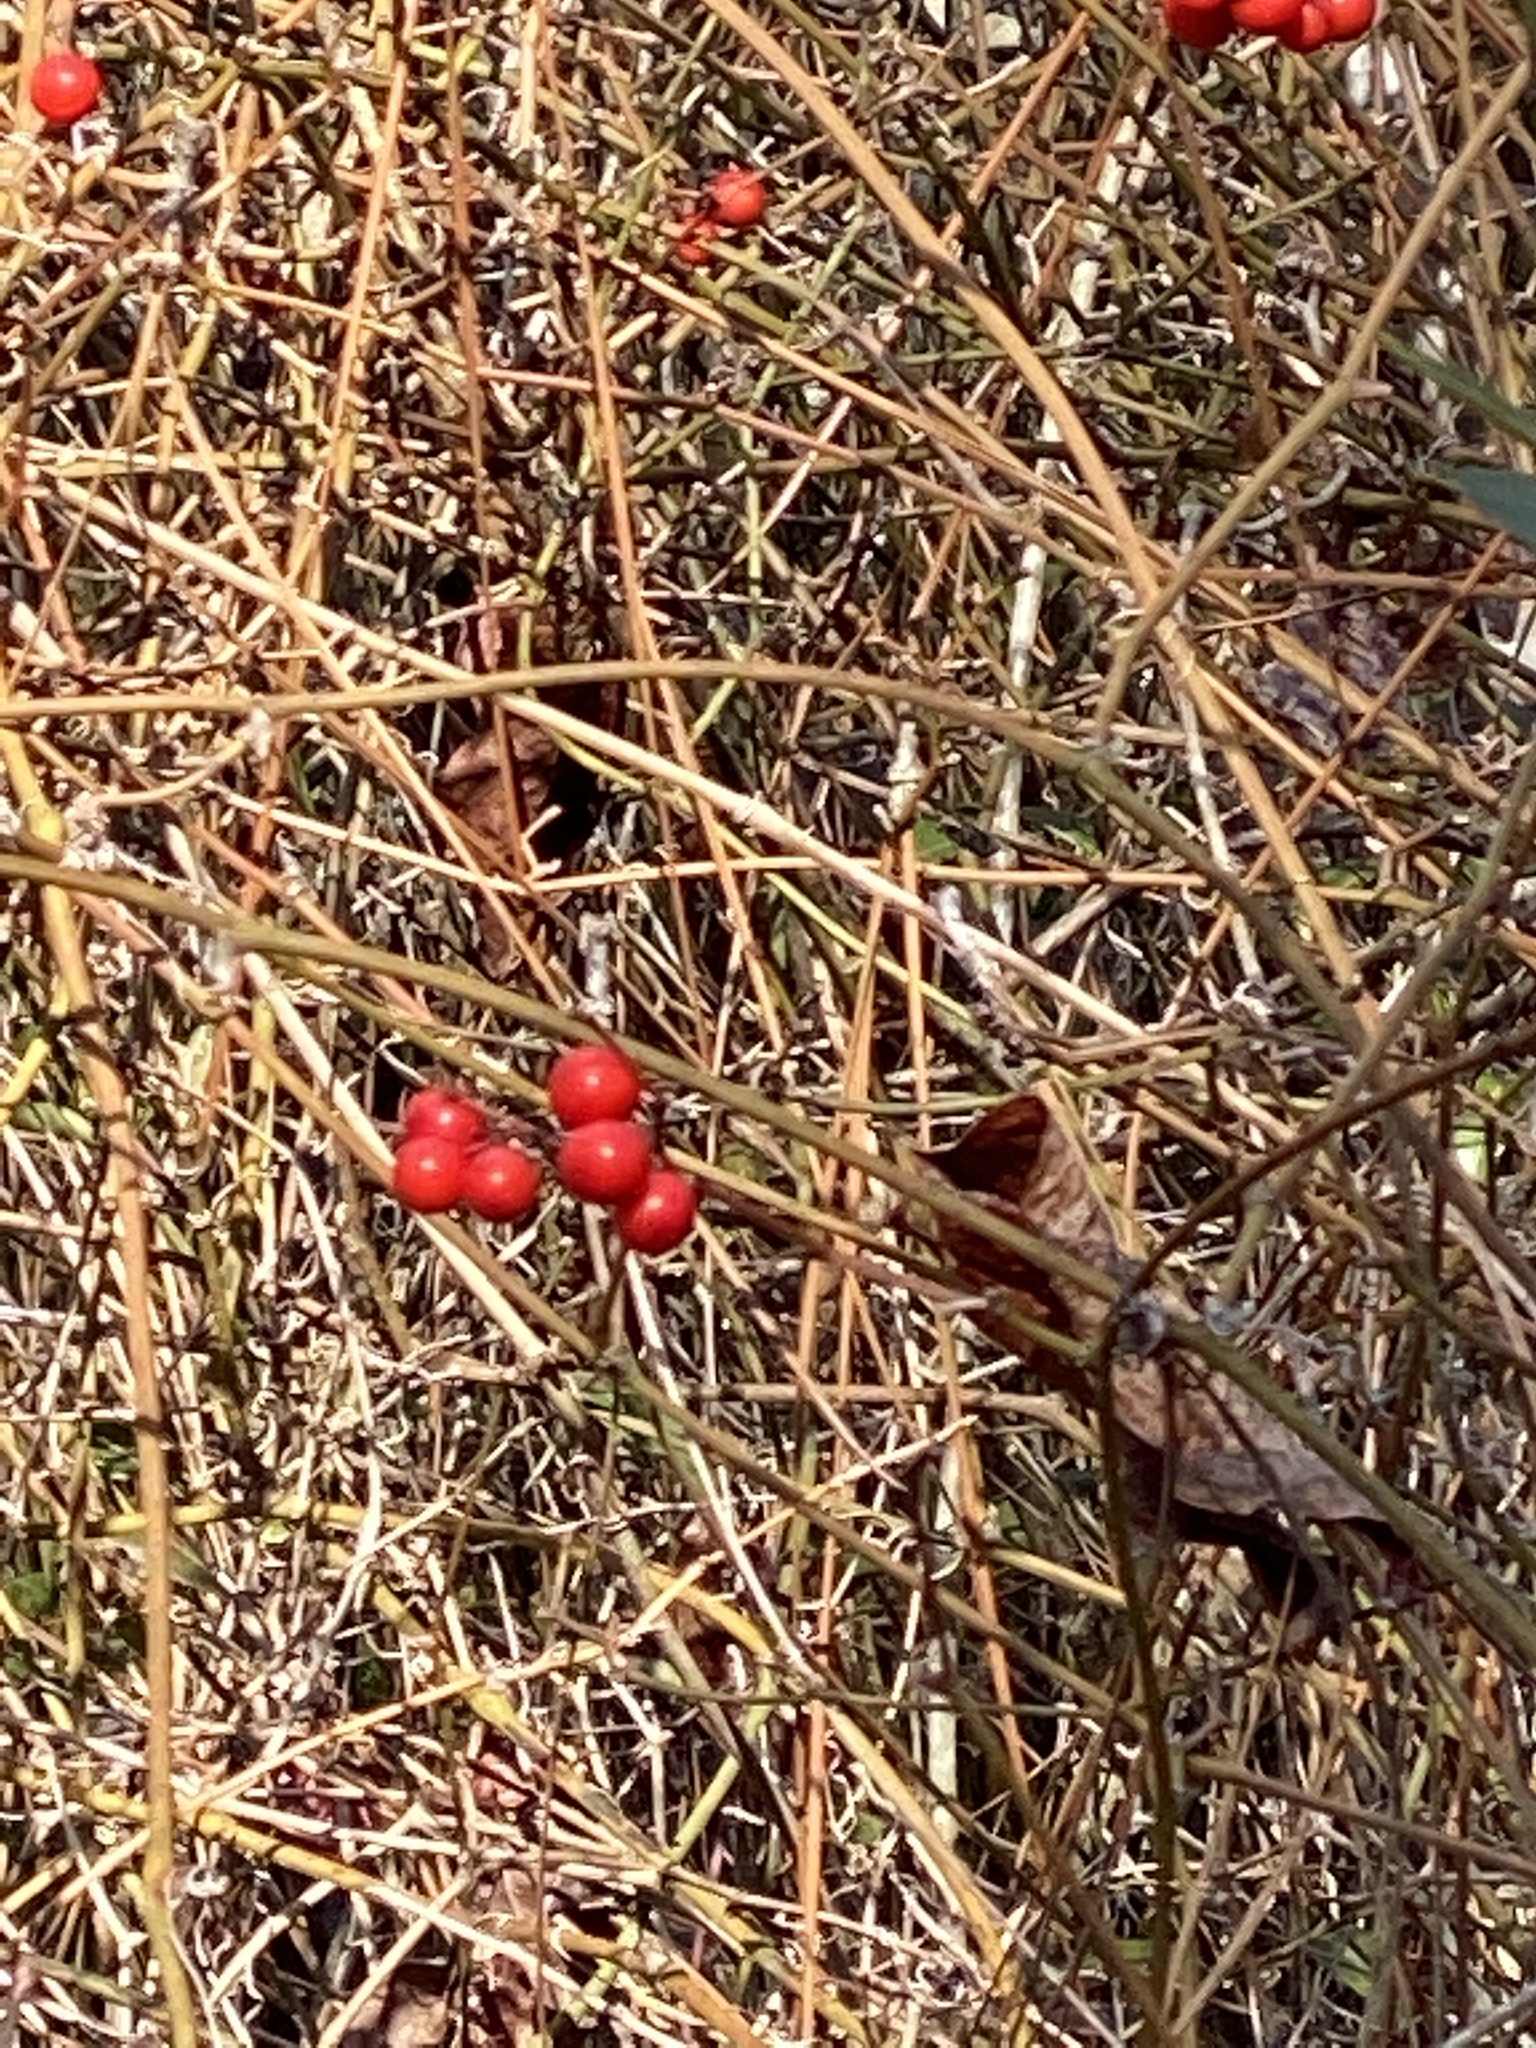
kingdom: Plantae
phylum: Tracheophyta
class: Liliopsida
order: Liliales
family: Smilacaceae
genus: Smilax
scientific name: Smilax walteri
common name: Coral greenbrier
